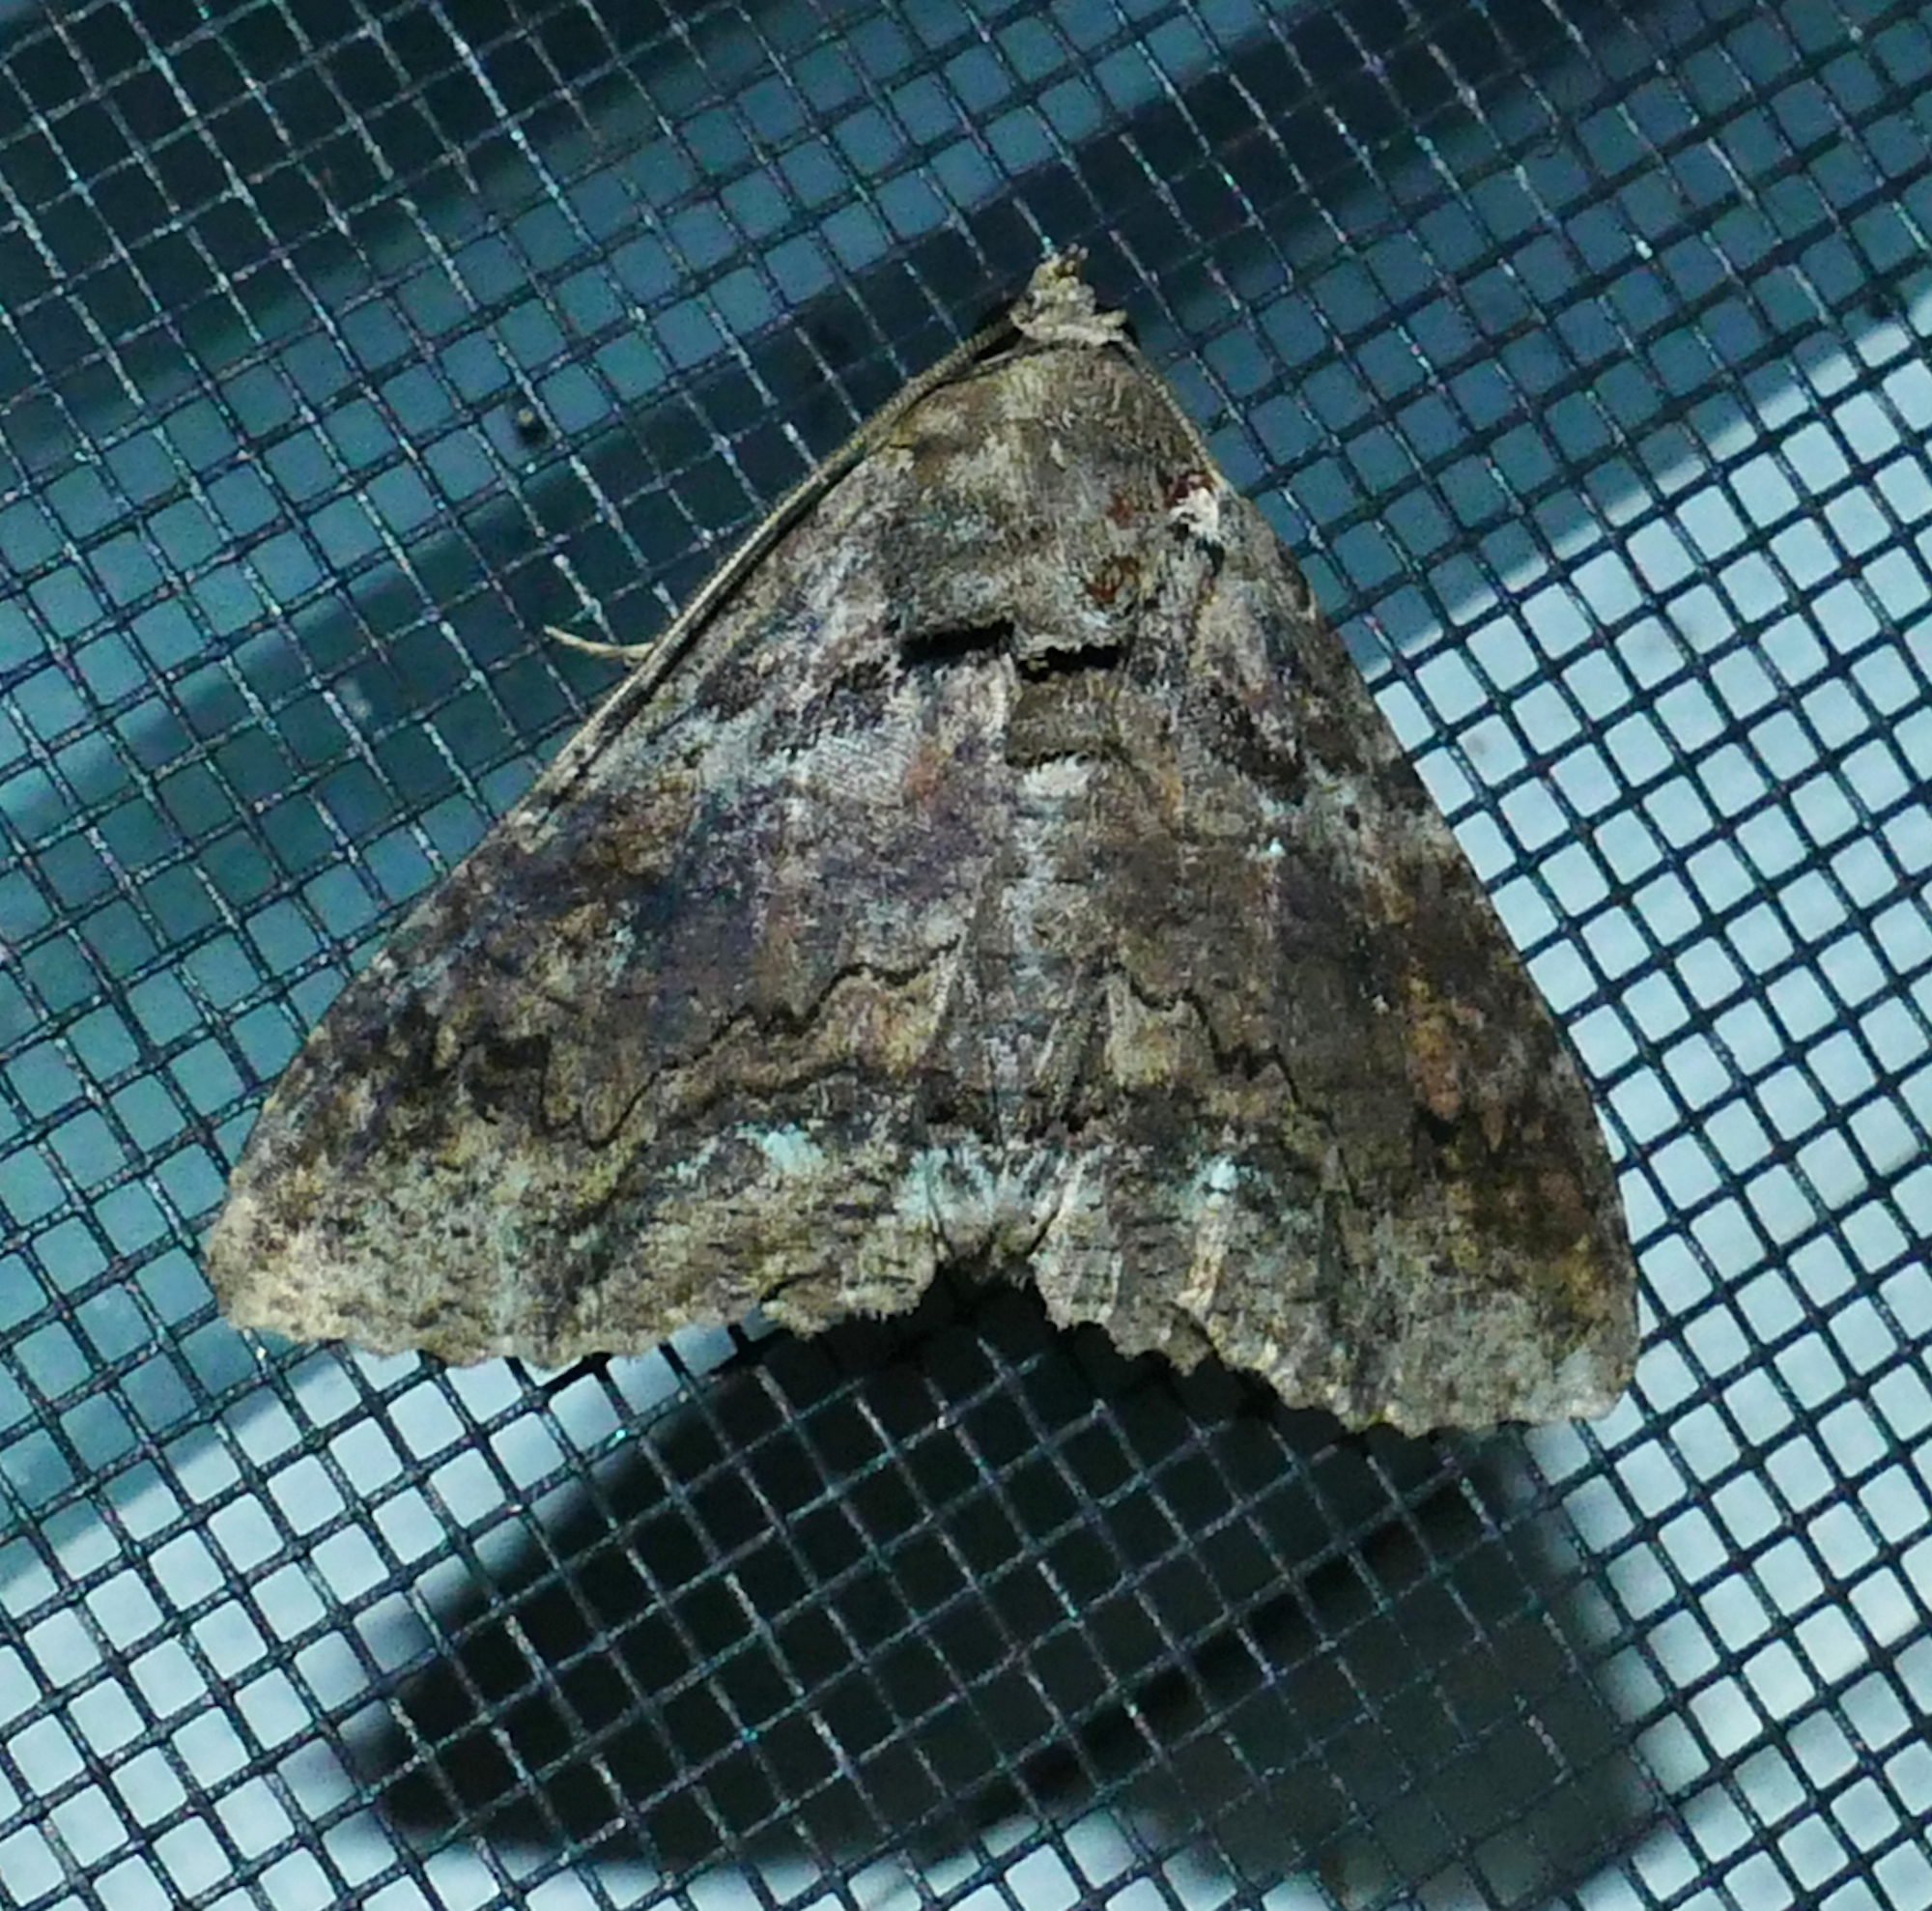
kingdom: Animalia
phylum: Arthropoda
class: Insecta
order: Lepidoptera
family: Erebidae
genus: Zale
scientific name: Zale lunata
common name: Lunate zale moth
